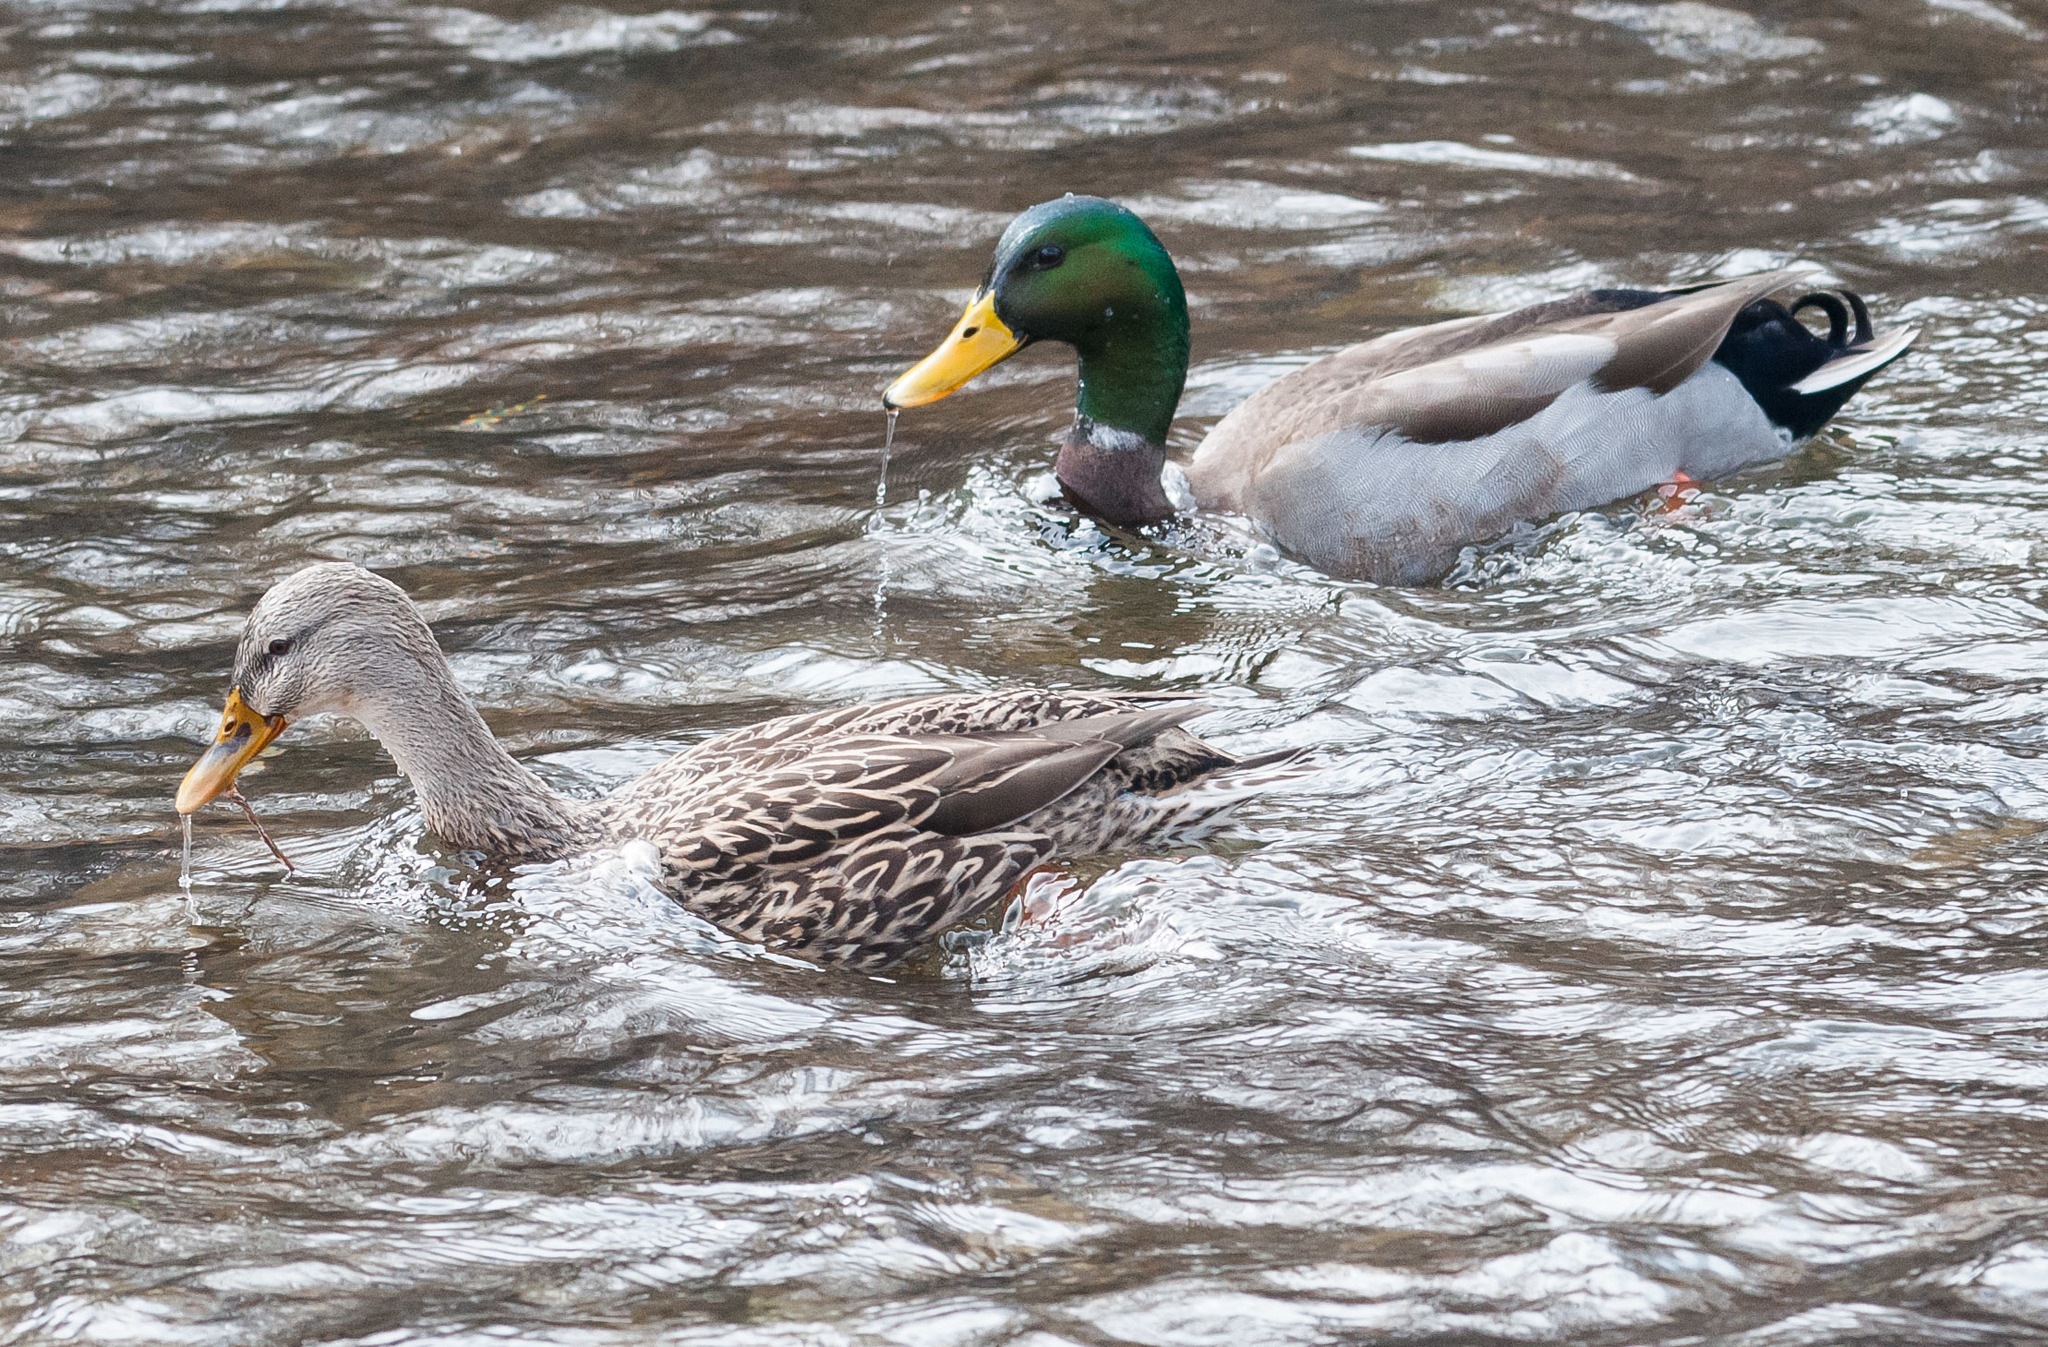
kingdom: Animalia
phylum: Chordata
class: Aves
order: Anseriformes
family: Anatidae
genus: Anas
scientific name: Anas platyrhynchos
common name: Mallard
